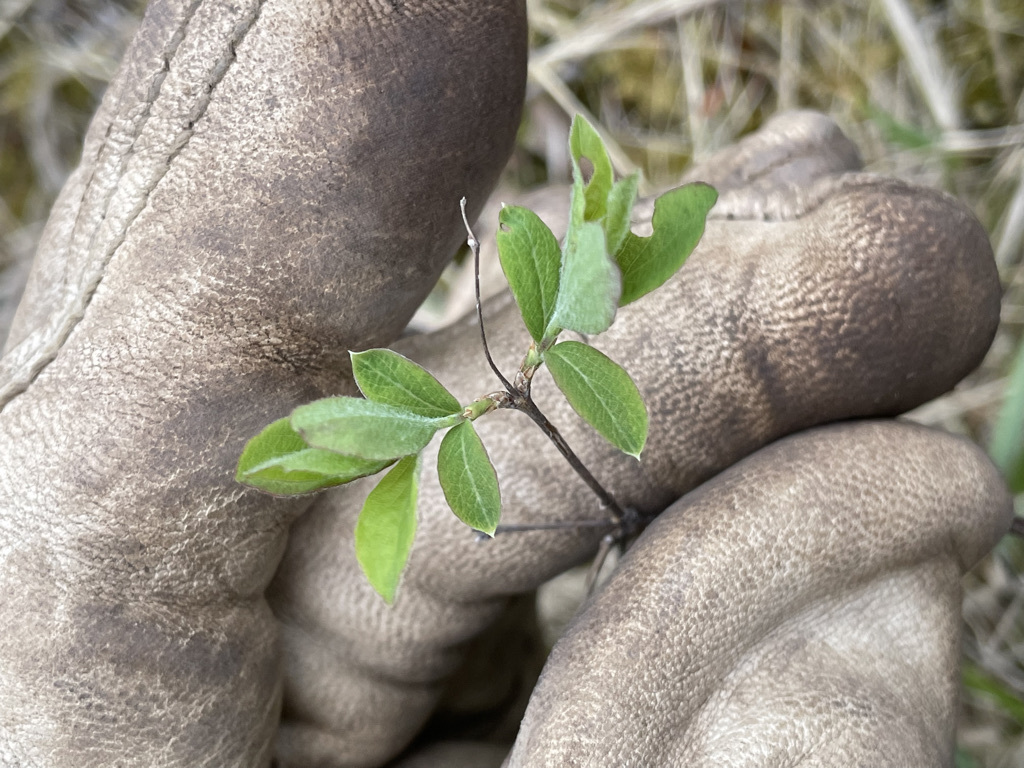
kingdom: Plantae
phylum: Tracheophyta
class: Magnoliopsida
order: Dipsacales
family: Caprifoliaceae
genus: Symphoricarpos
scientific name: Symphoricarpos albus
